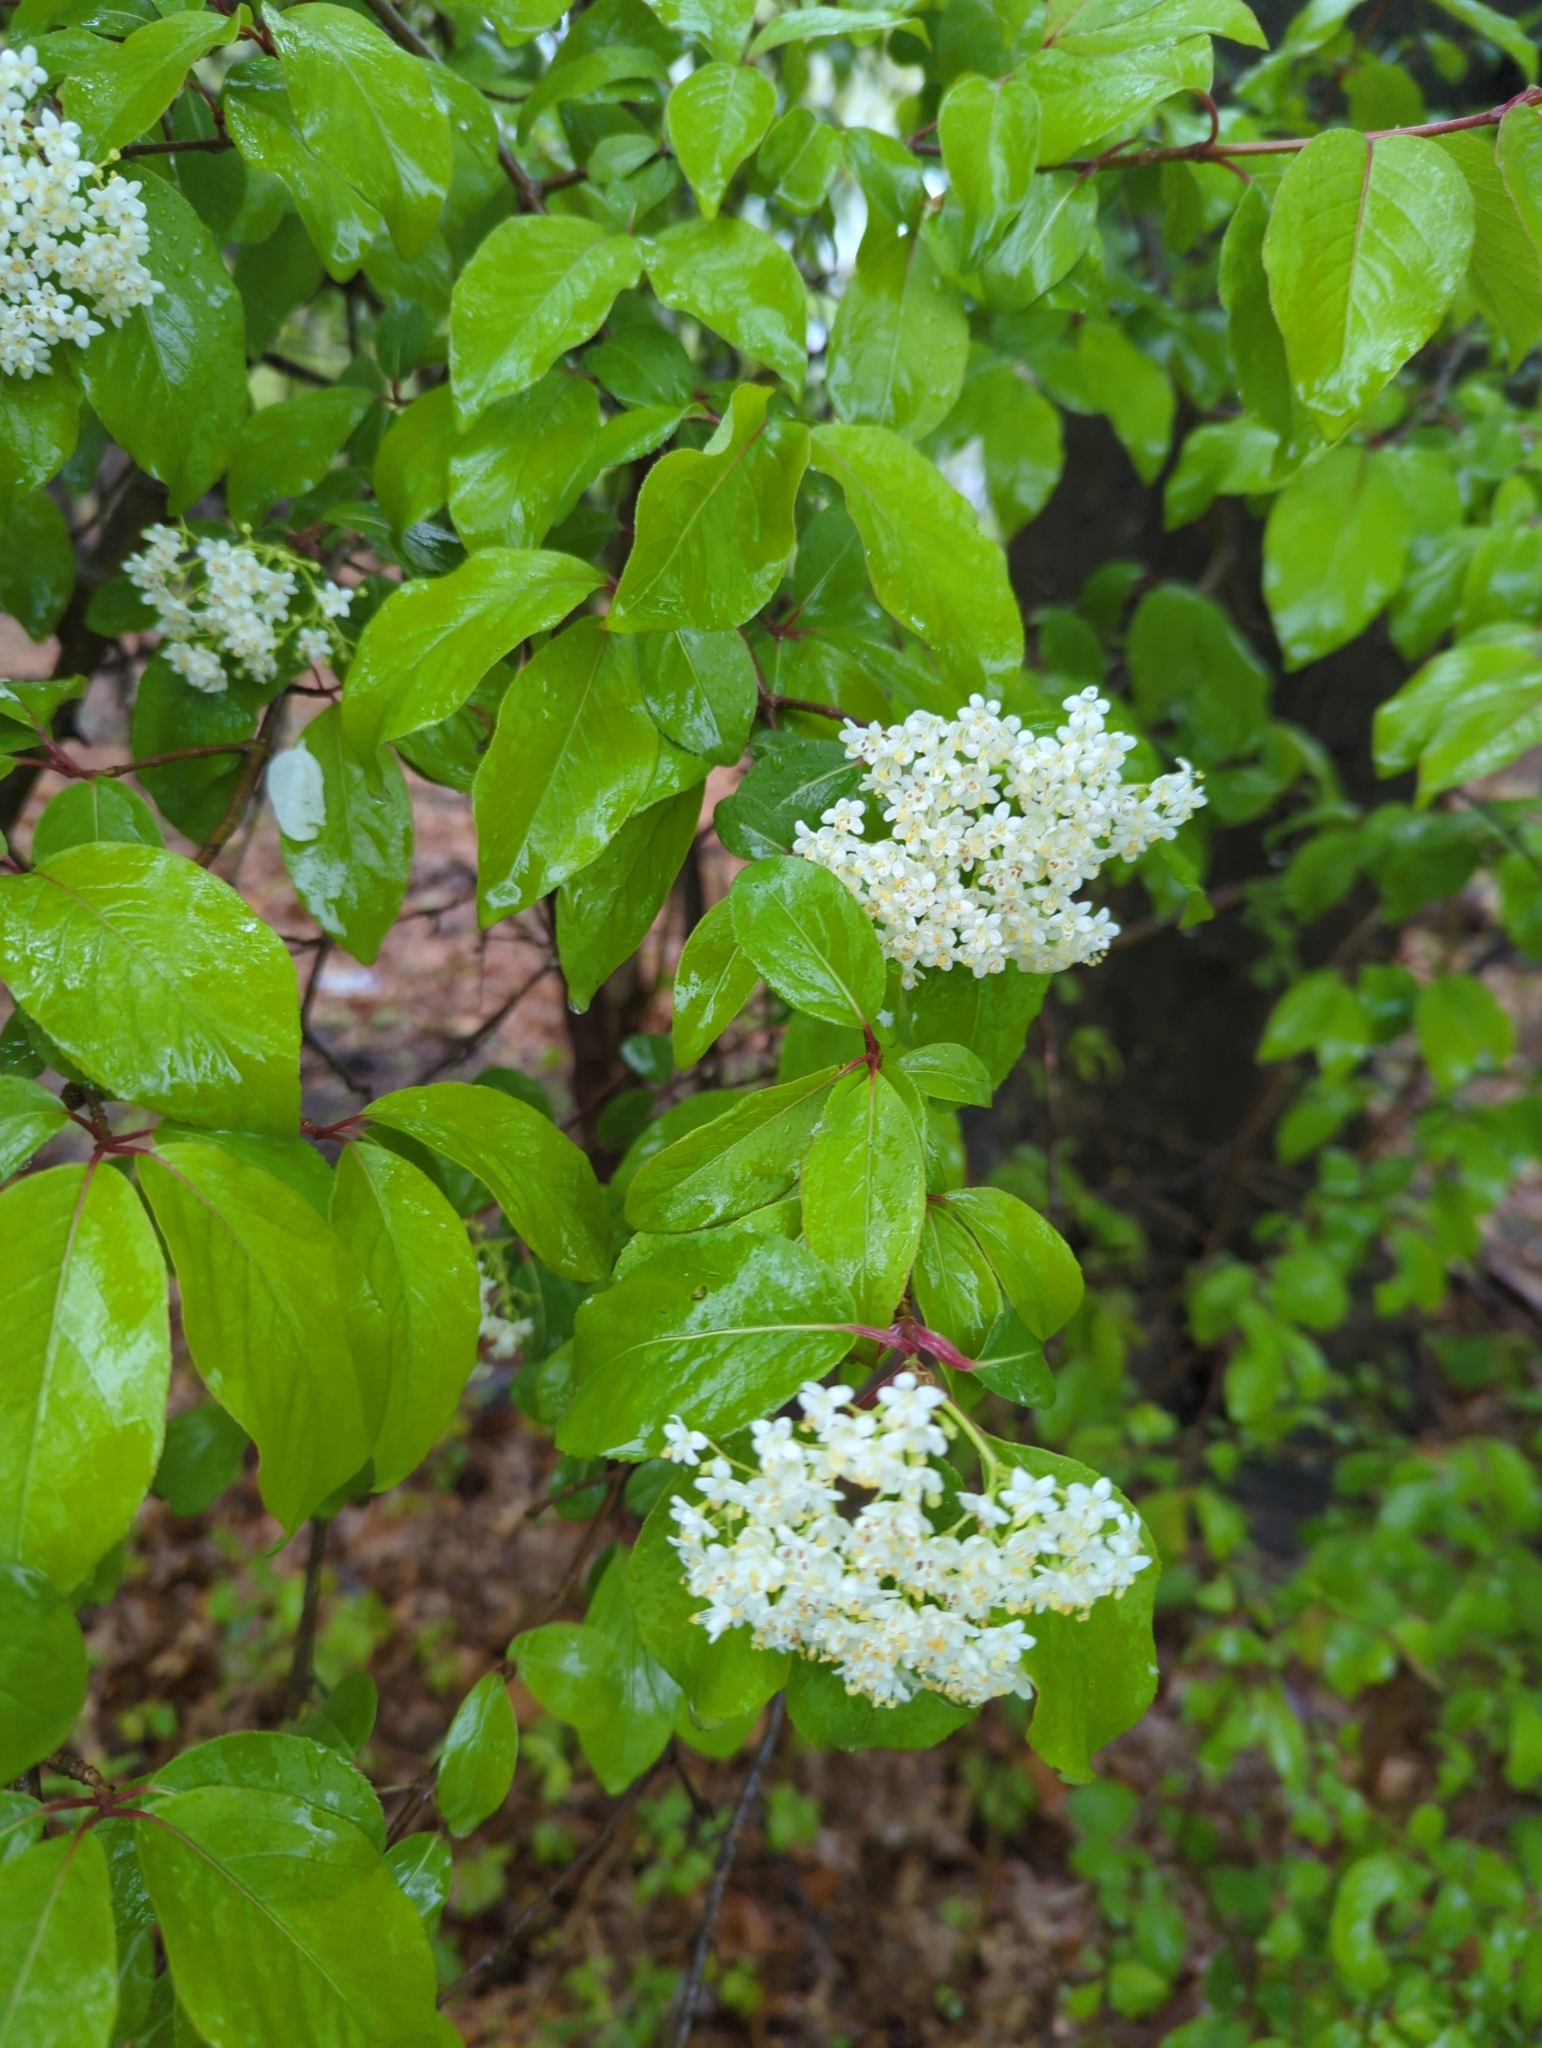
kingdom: Plantae
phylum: Tracheophyta
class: Magnoliopsida
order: Dipsacales
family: Viburnaceae
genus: Viburnum
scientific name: Viburnum prunifolium
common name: Black haw
